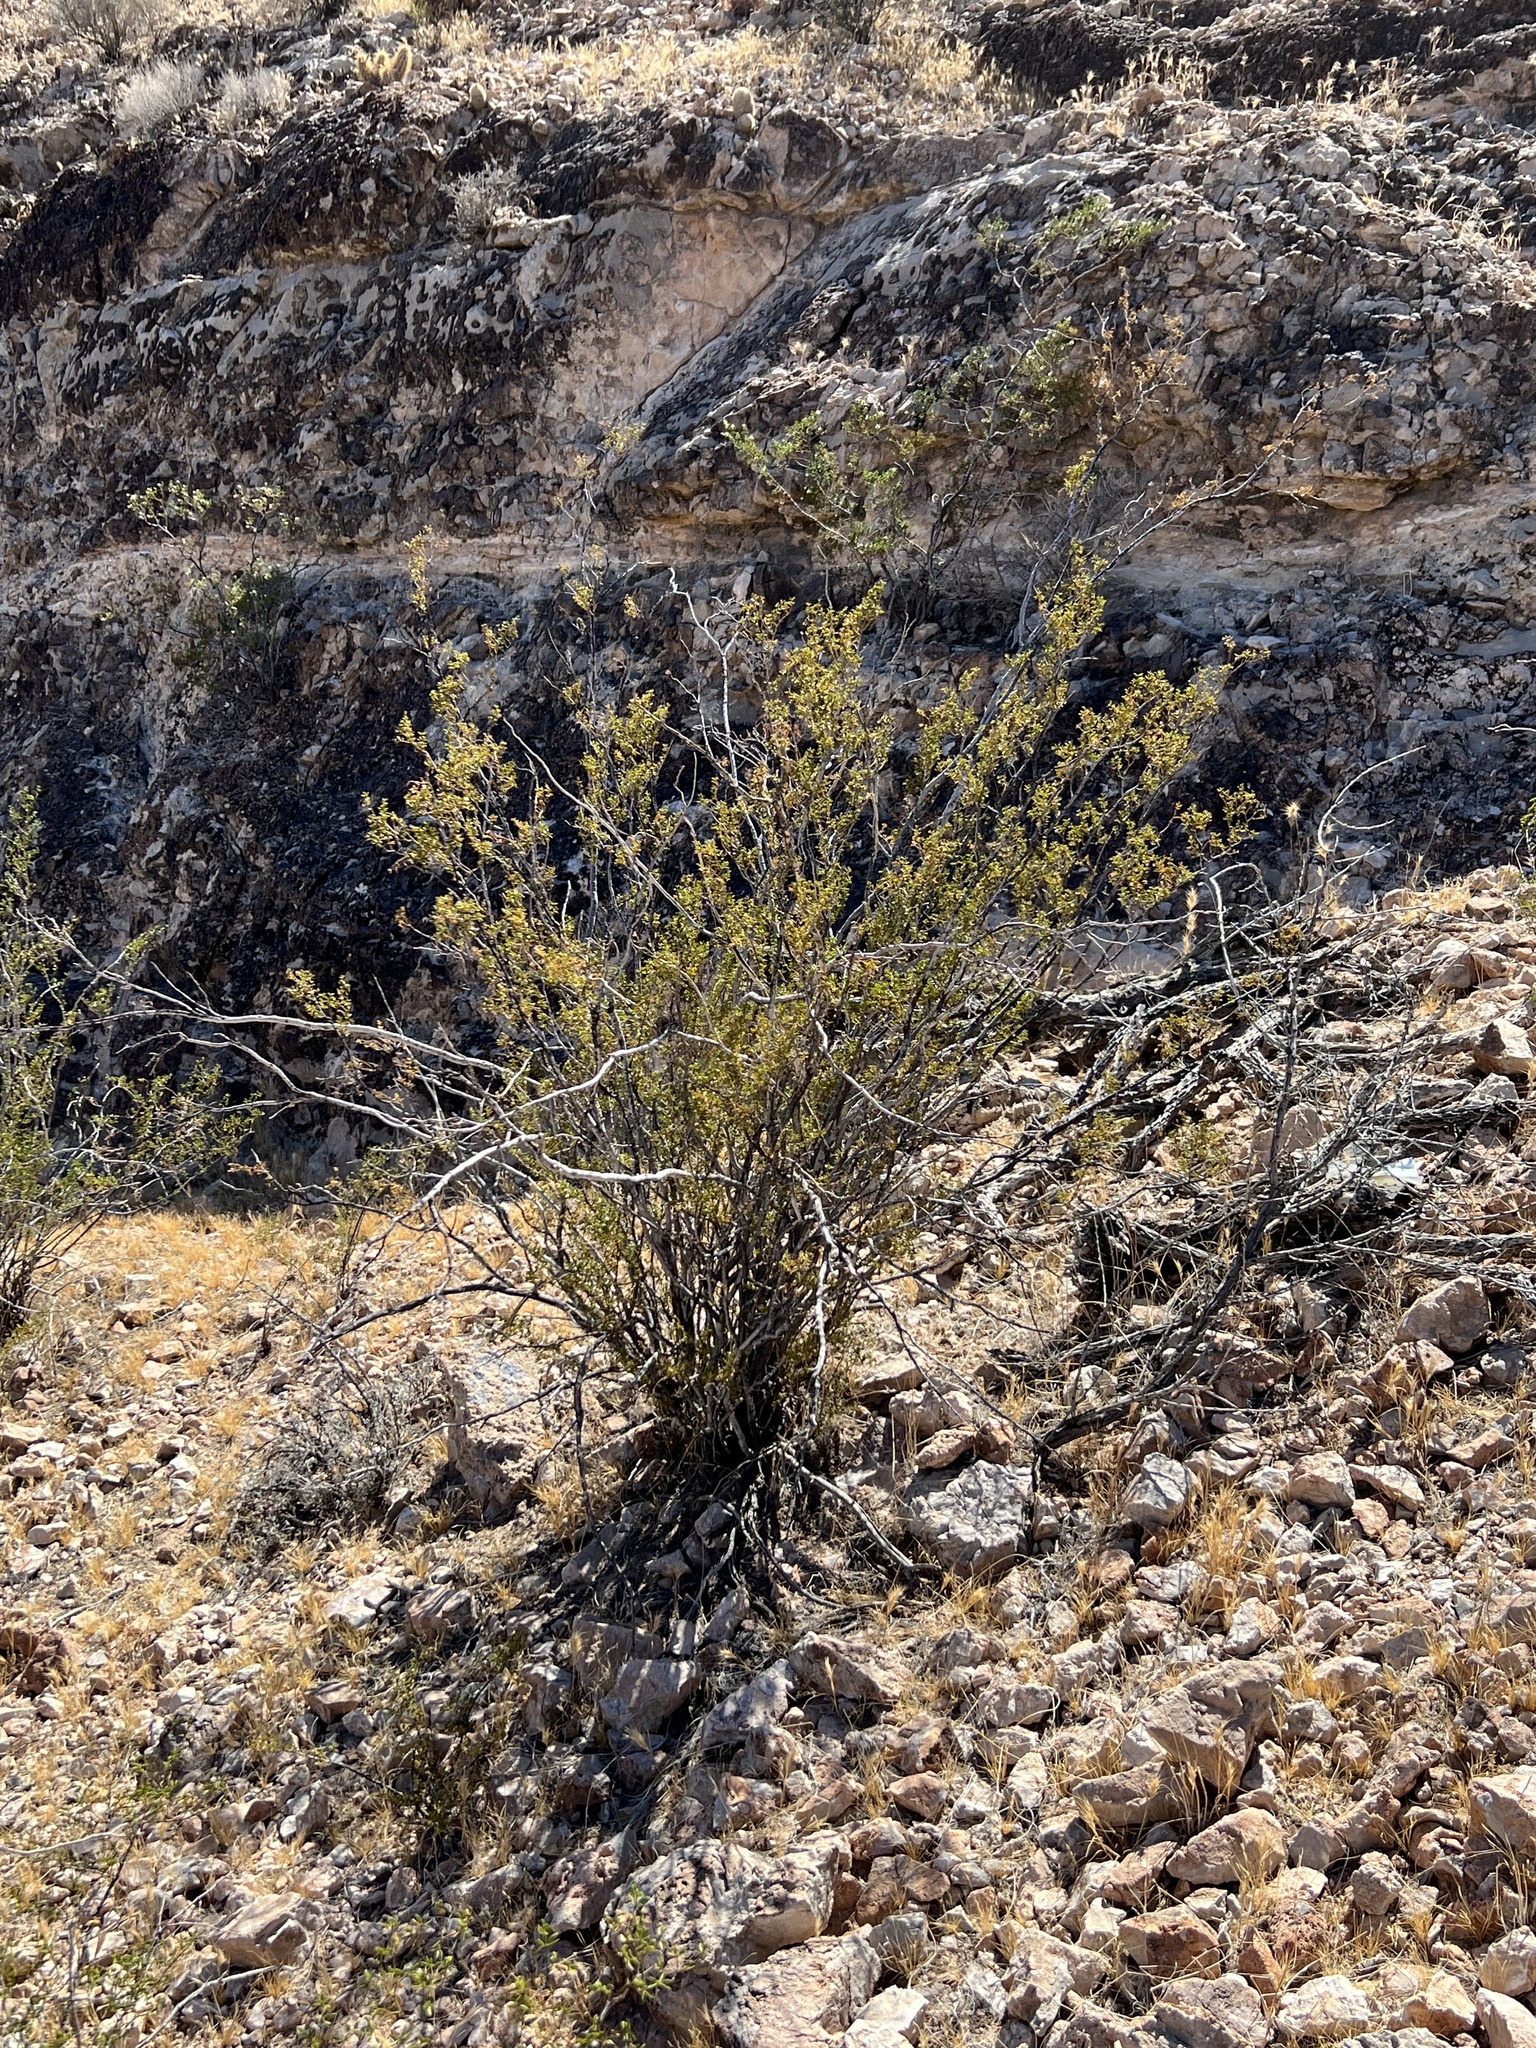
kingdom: Plantae
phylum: Tracheophyta
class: Magnoliopsida
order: Zygophyllales
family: Zygophyllaceae
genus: Larrea
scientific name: Larrea tridentata
